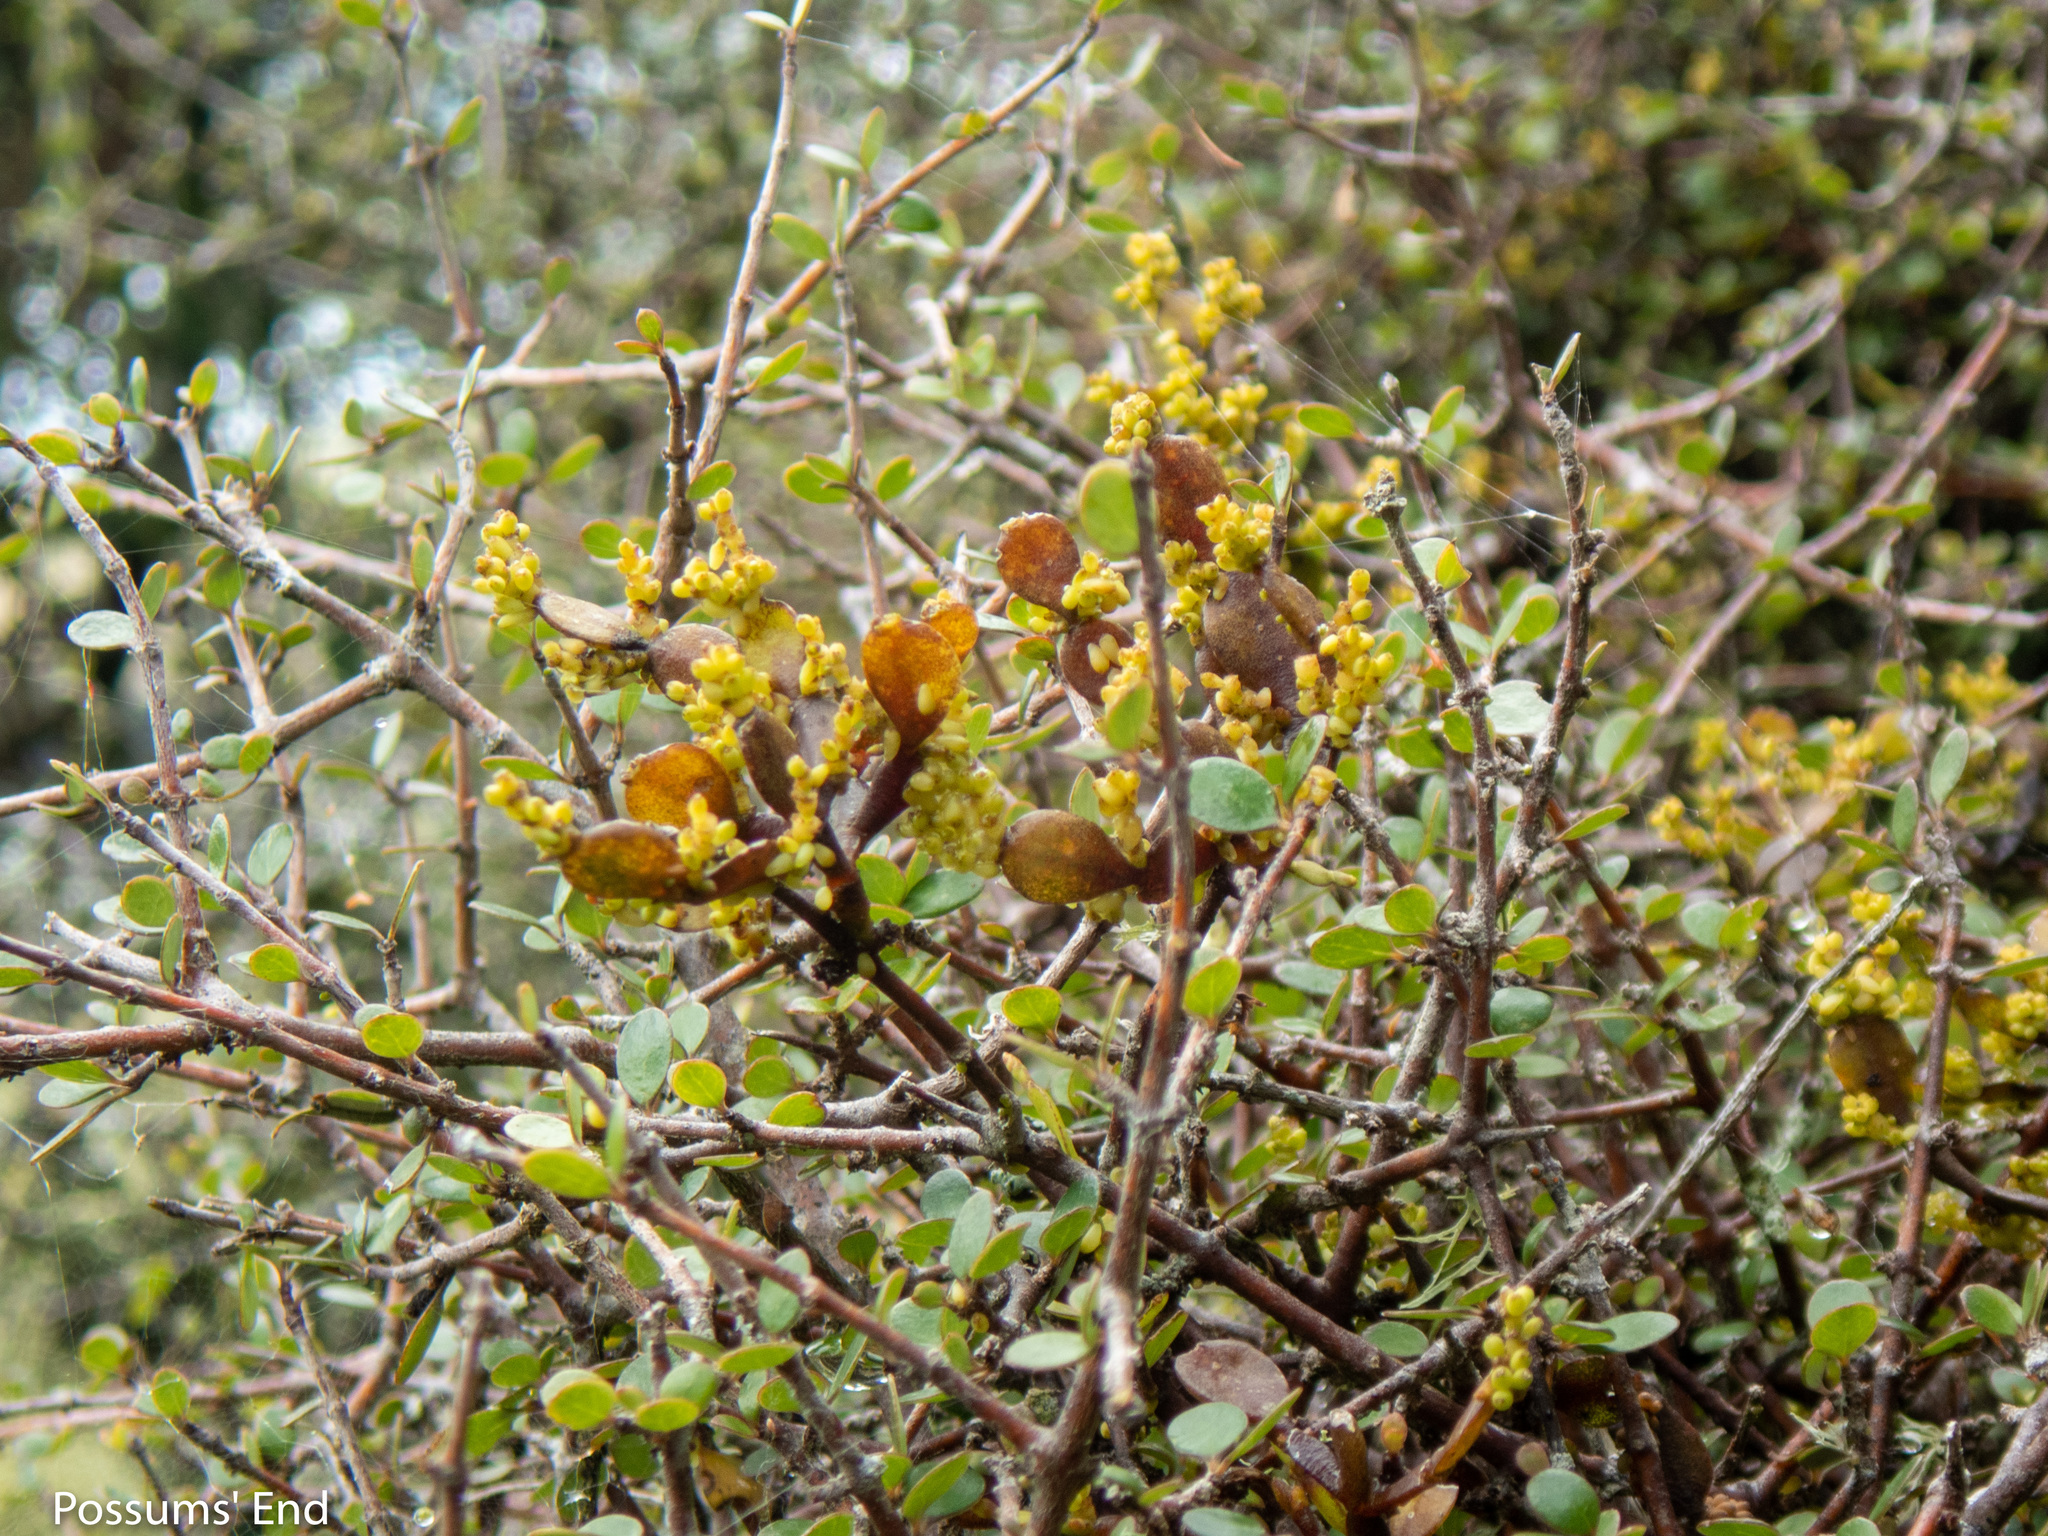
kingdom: Plantae
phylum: Tracheophyta
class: Magnoliopsida
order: Santalales
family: Viscaceae
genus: Korthalsella
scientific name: Korthalsella lindsayi
